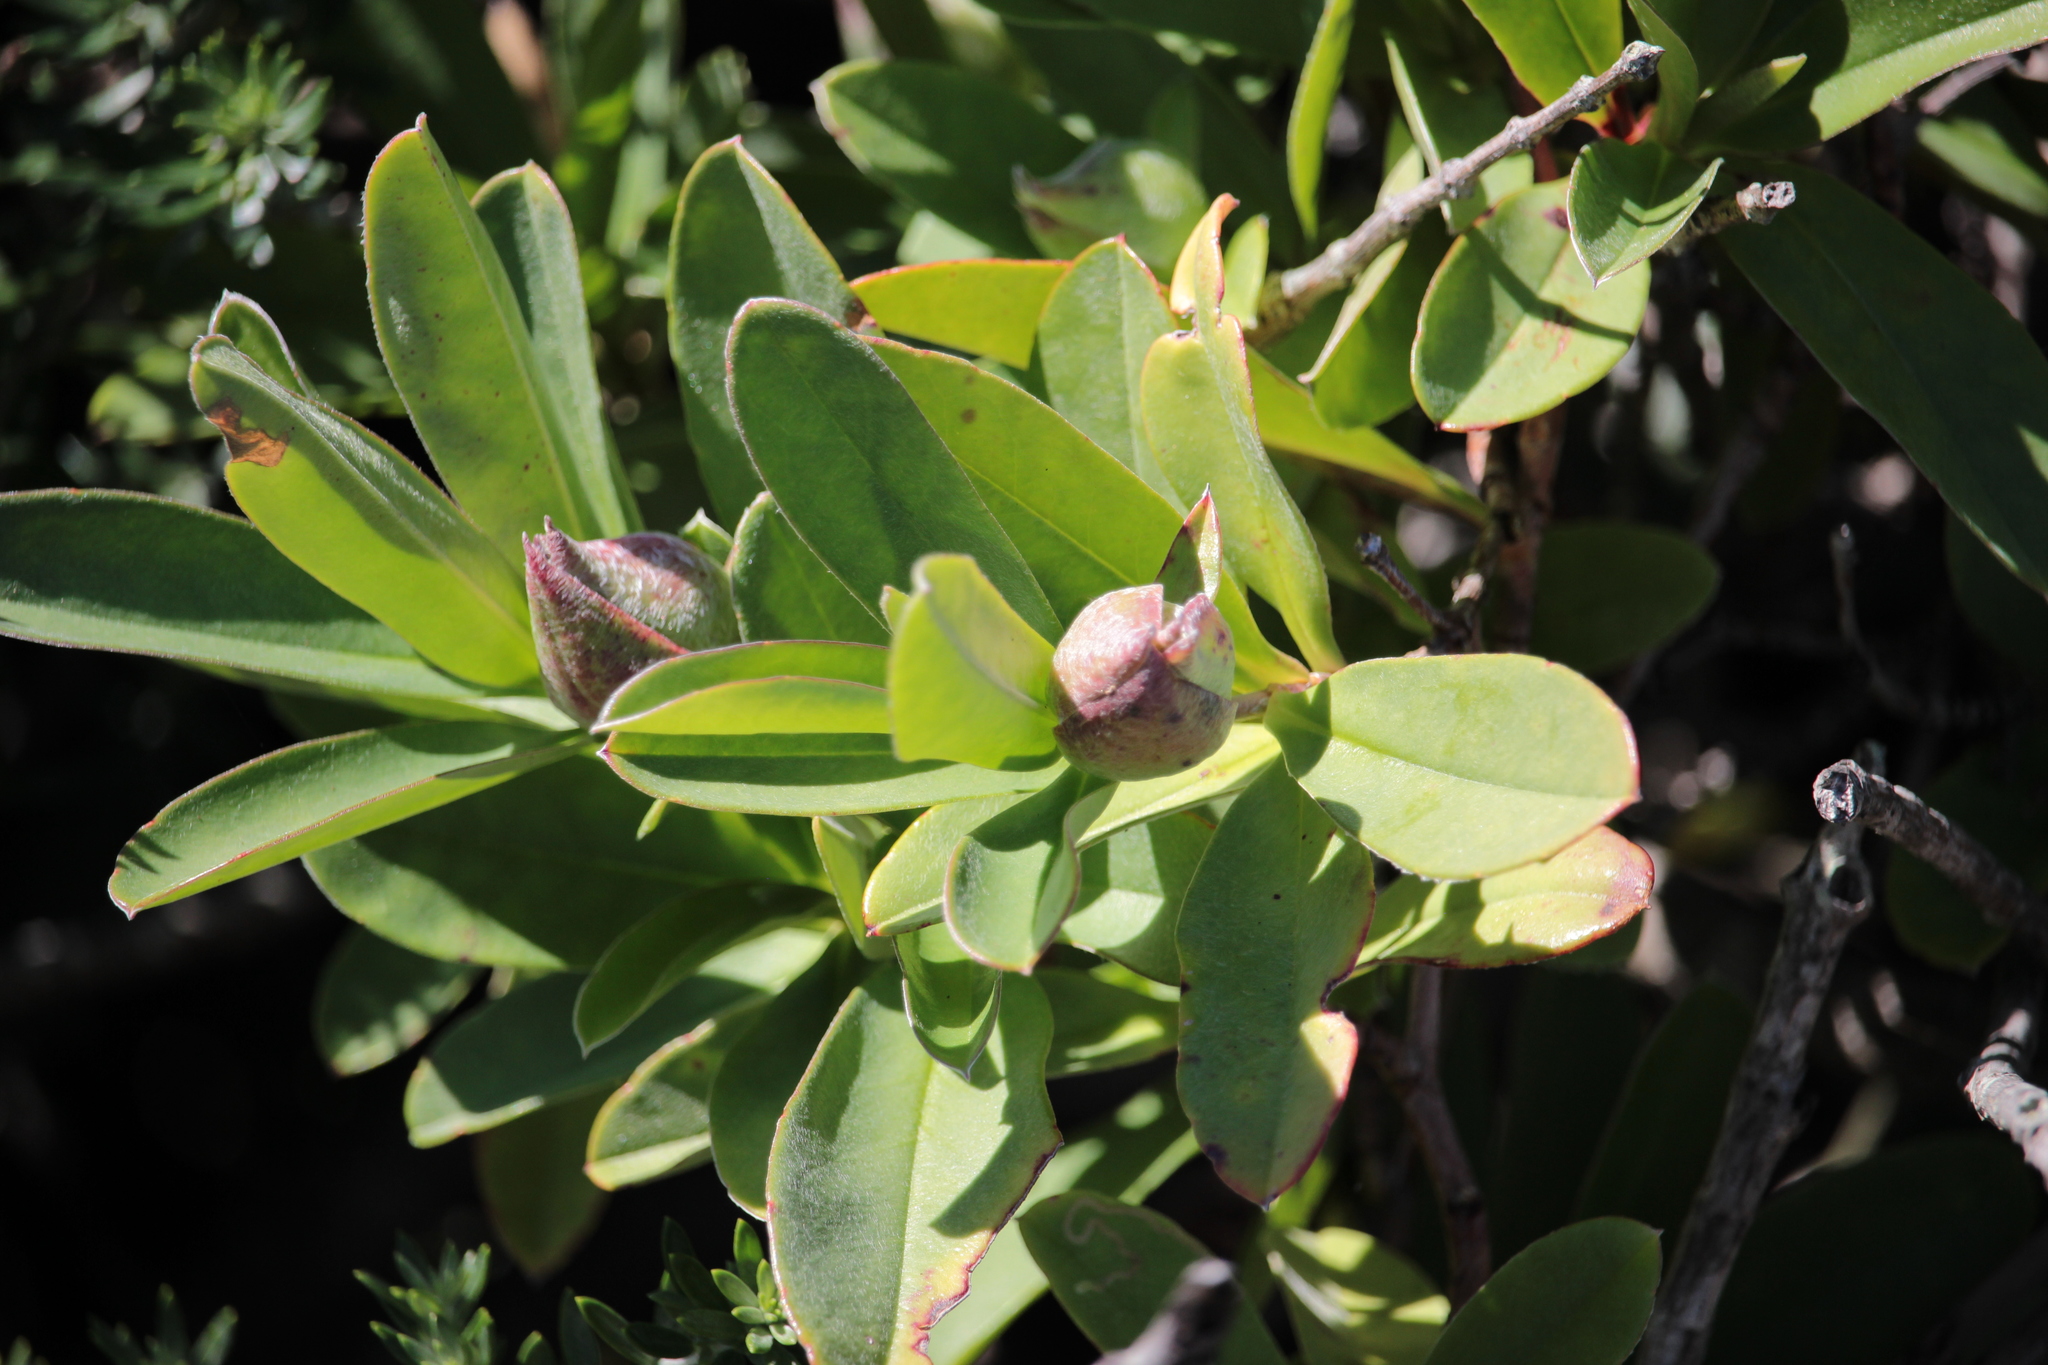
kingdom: Plantae
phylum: Tracheophyta
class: Magnoliopsida
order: Dilleniales
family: Dilleniaceae
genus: Hibbertia
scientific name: Hibbertia scandens
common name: Climbing guinea-flower
